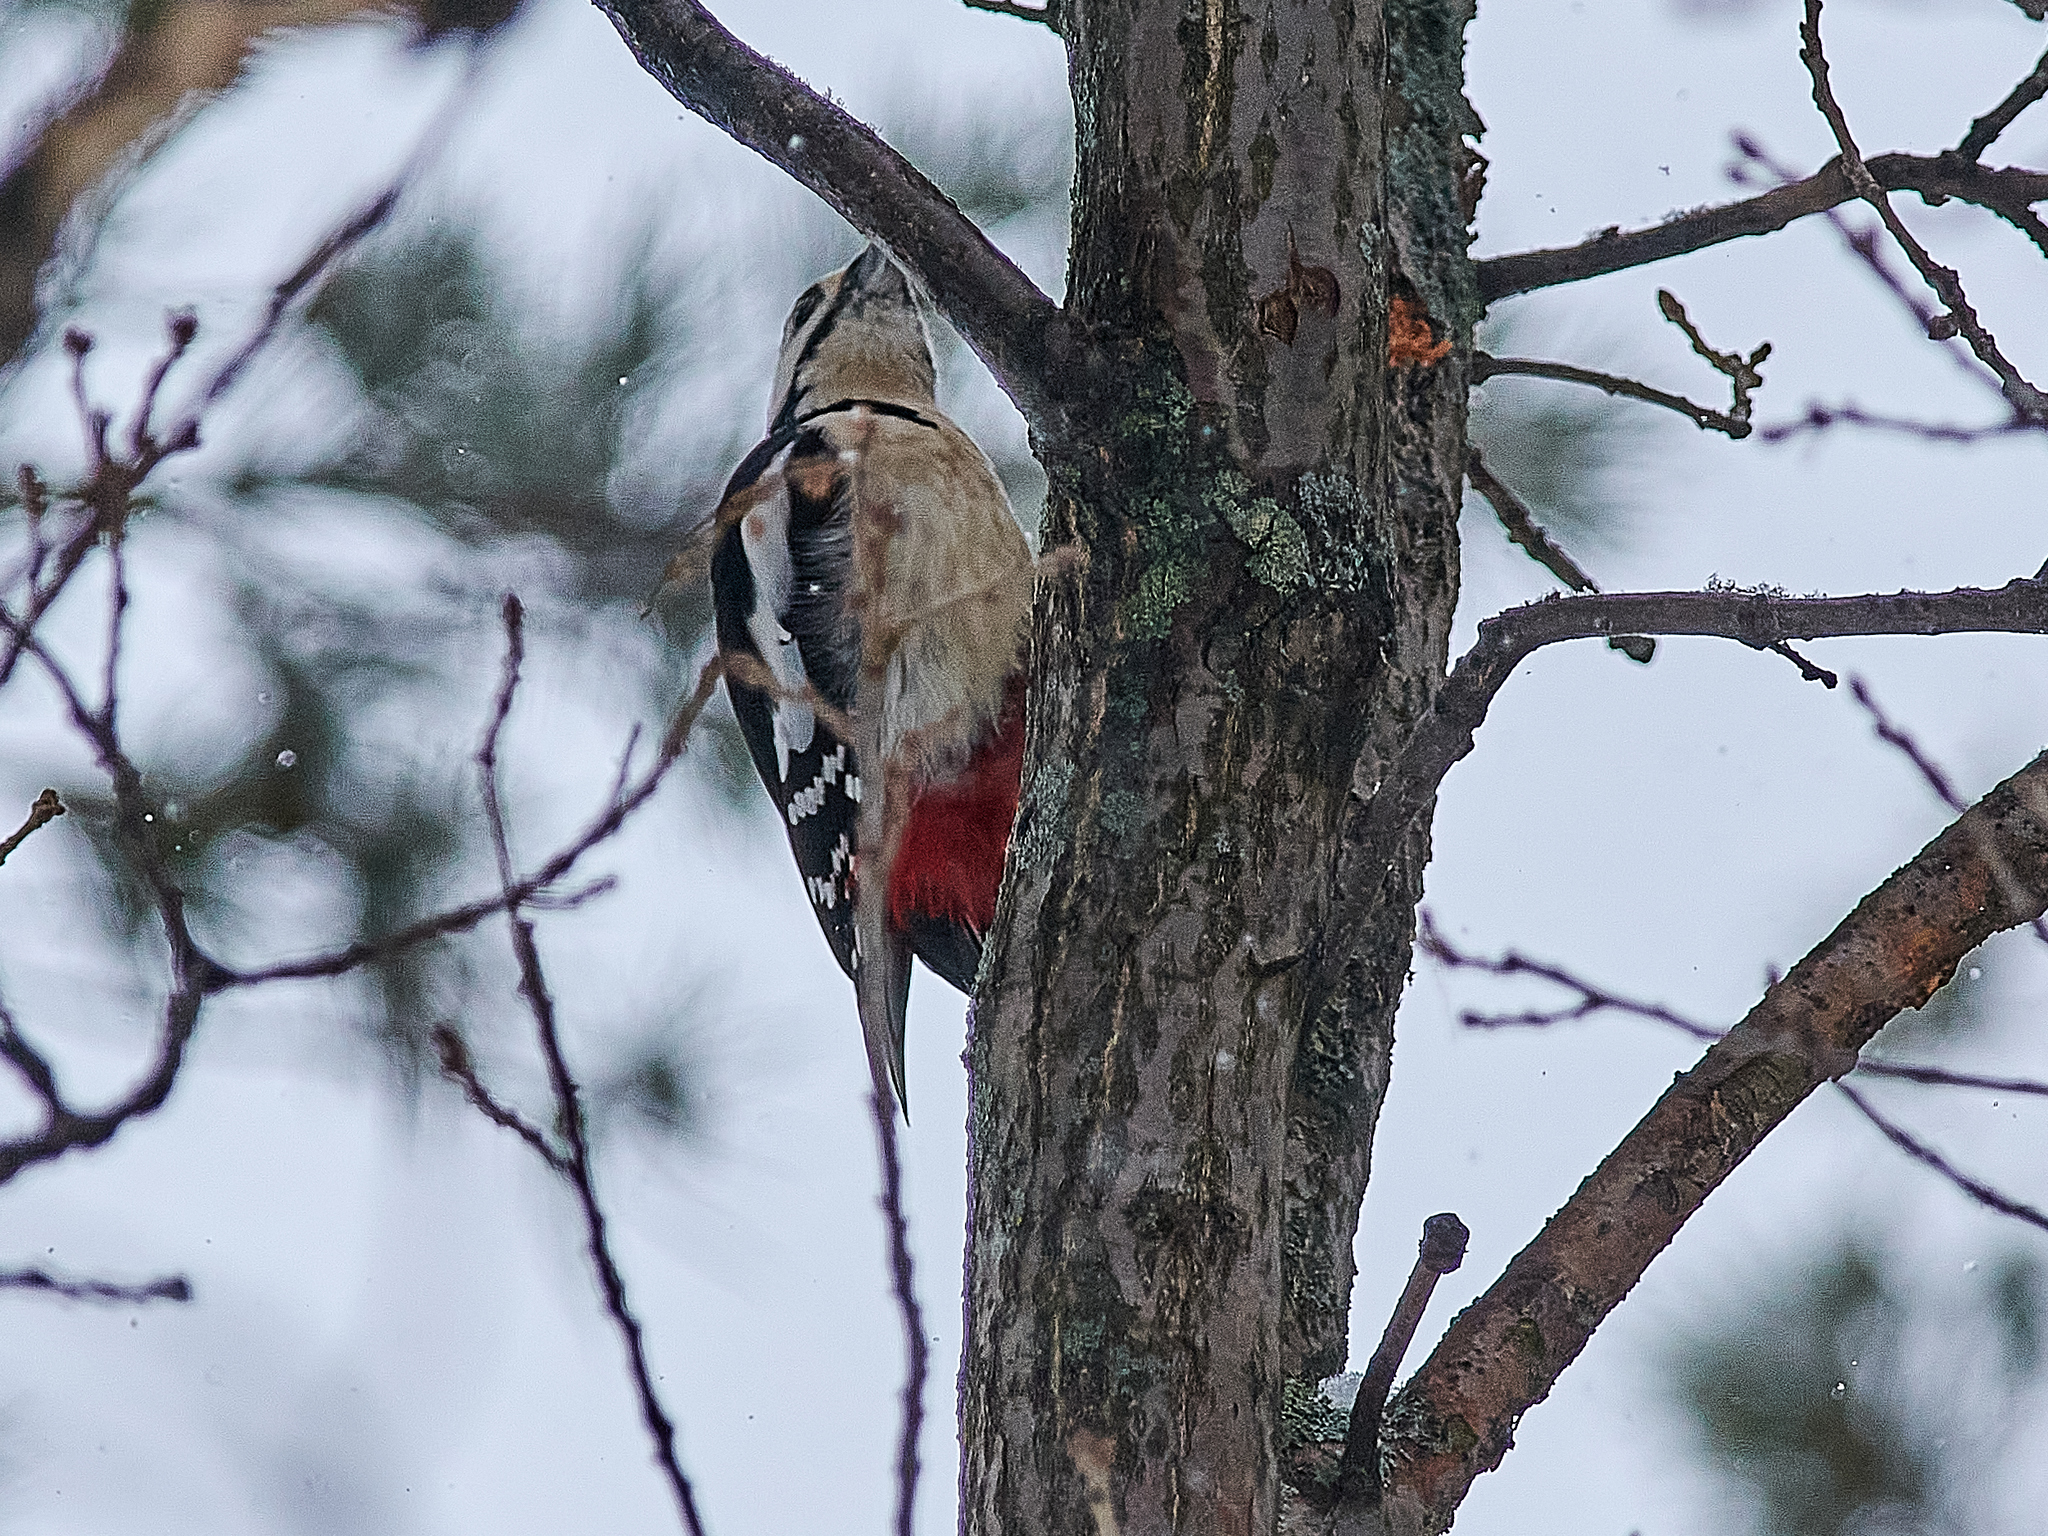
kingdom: Animalia
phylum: Chordata
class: Aves
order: Piciformes
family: Picidae
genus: Dendrocopos
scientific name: Dendrocopos major
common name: Great spotted woodpecker
